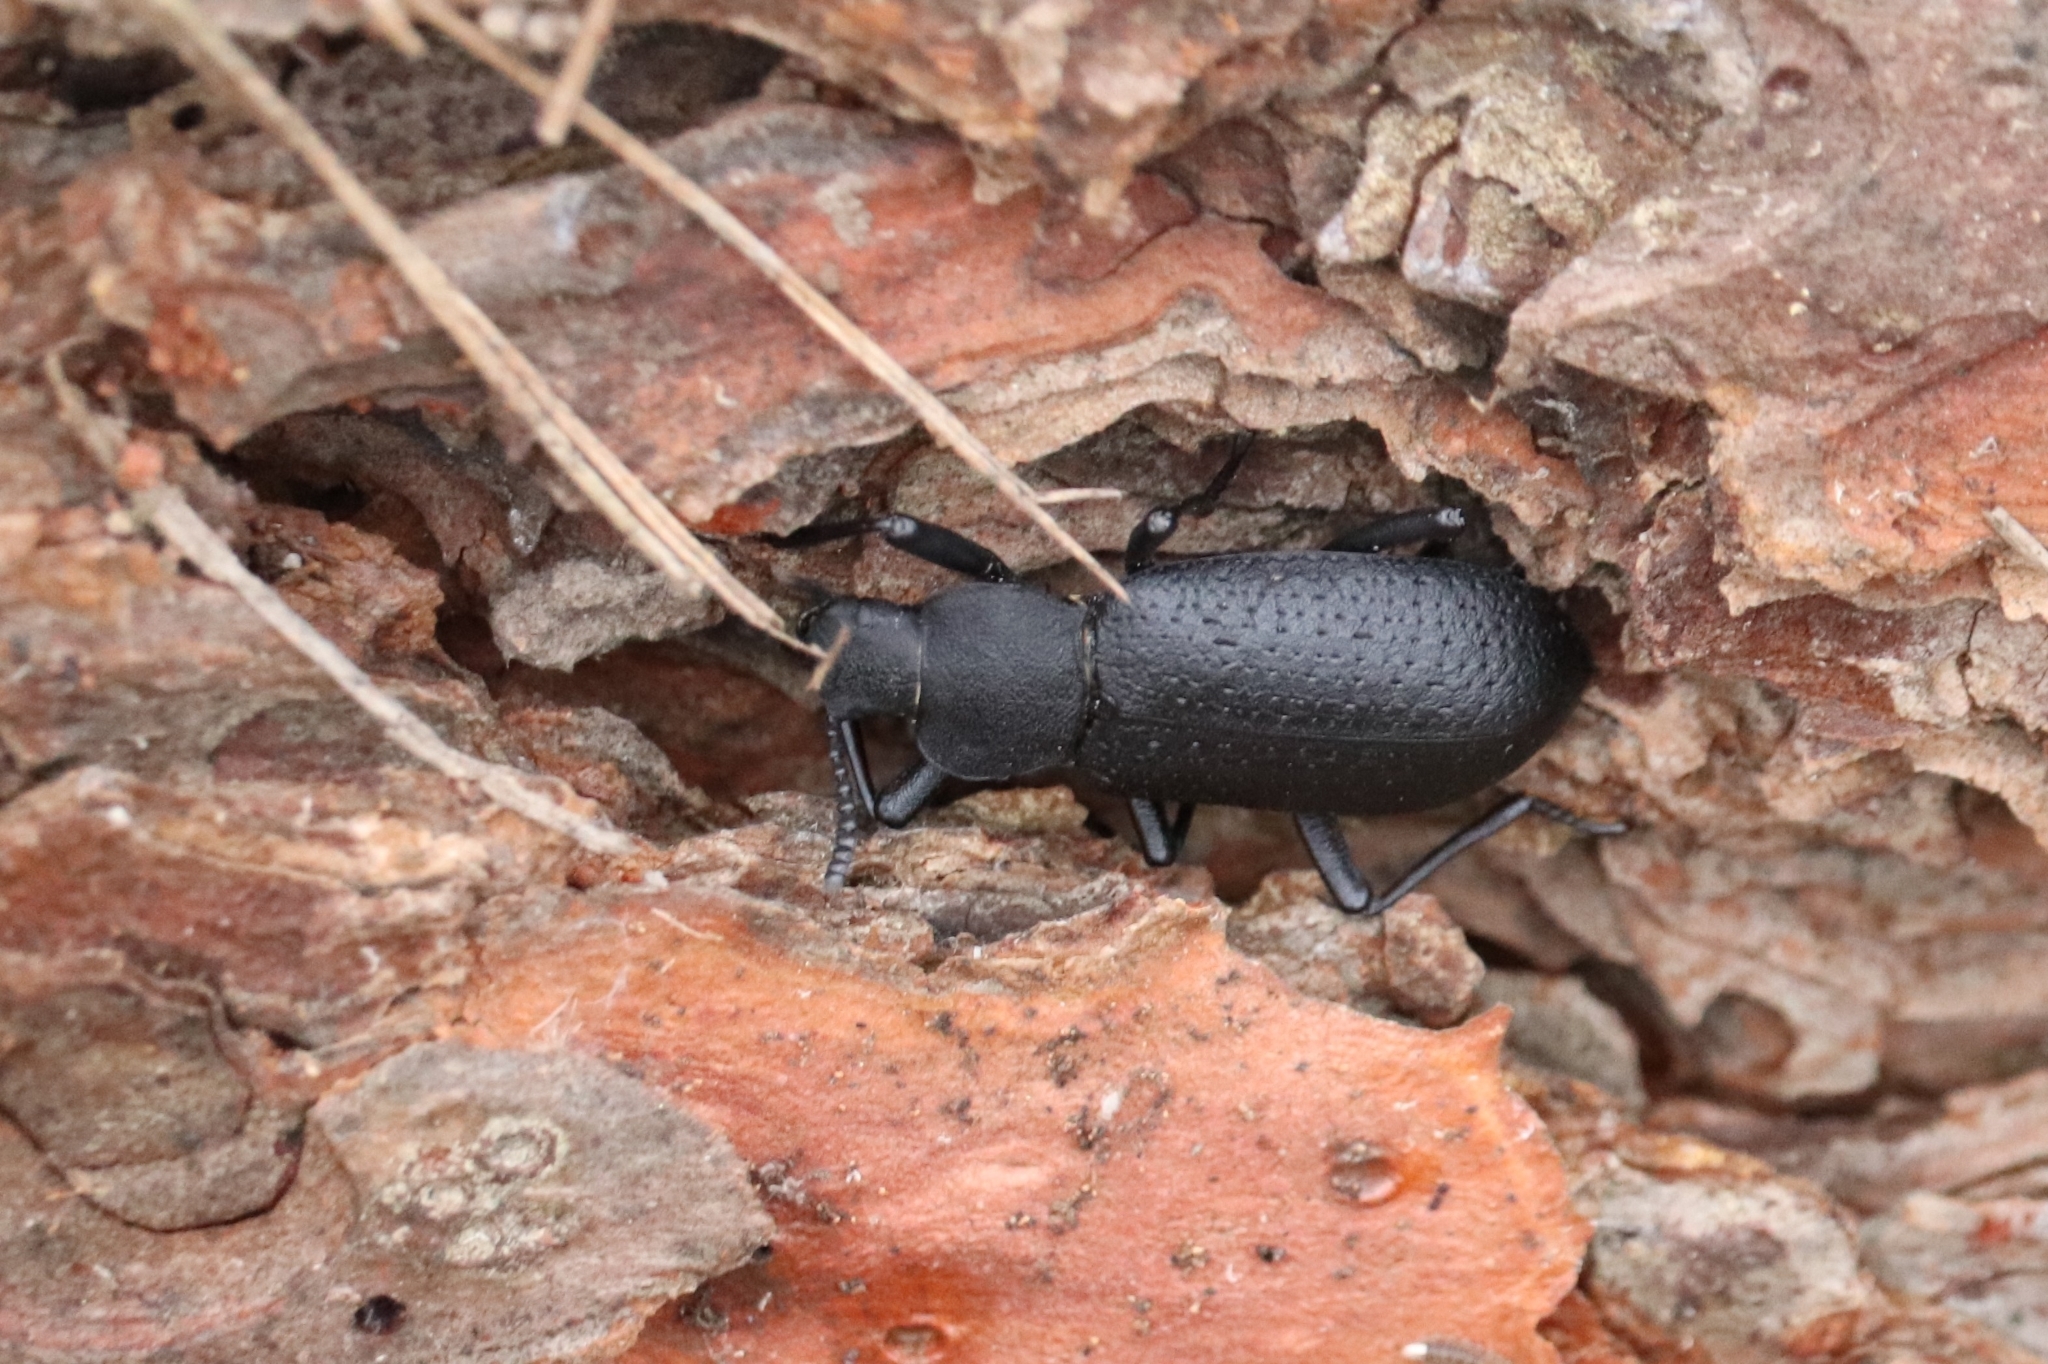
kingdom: Animalia
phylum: Arthropoda
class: Insecta
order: Coleoptera
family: Tenebrionidae
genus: Iphthiminus
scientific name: Iphthiminus serratus
